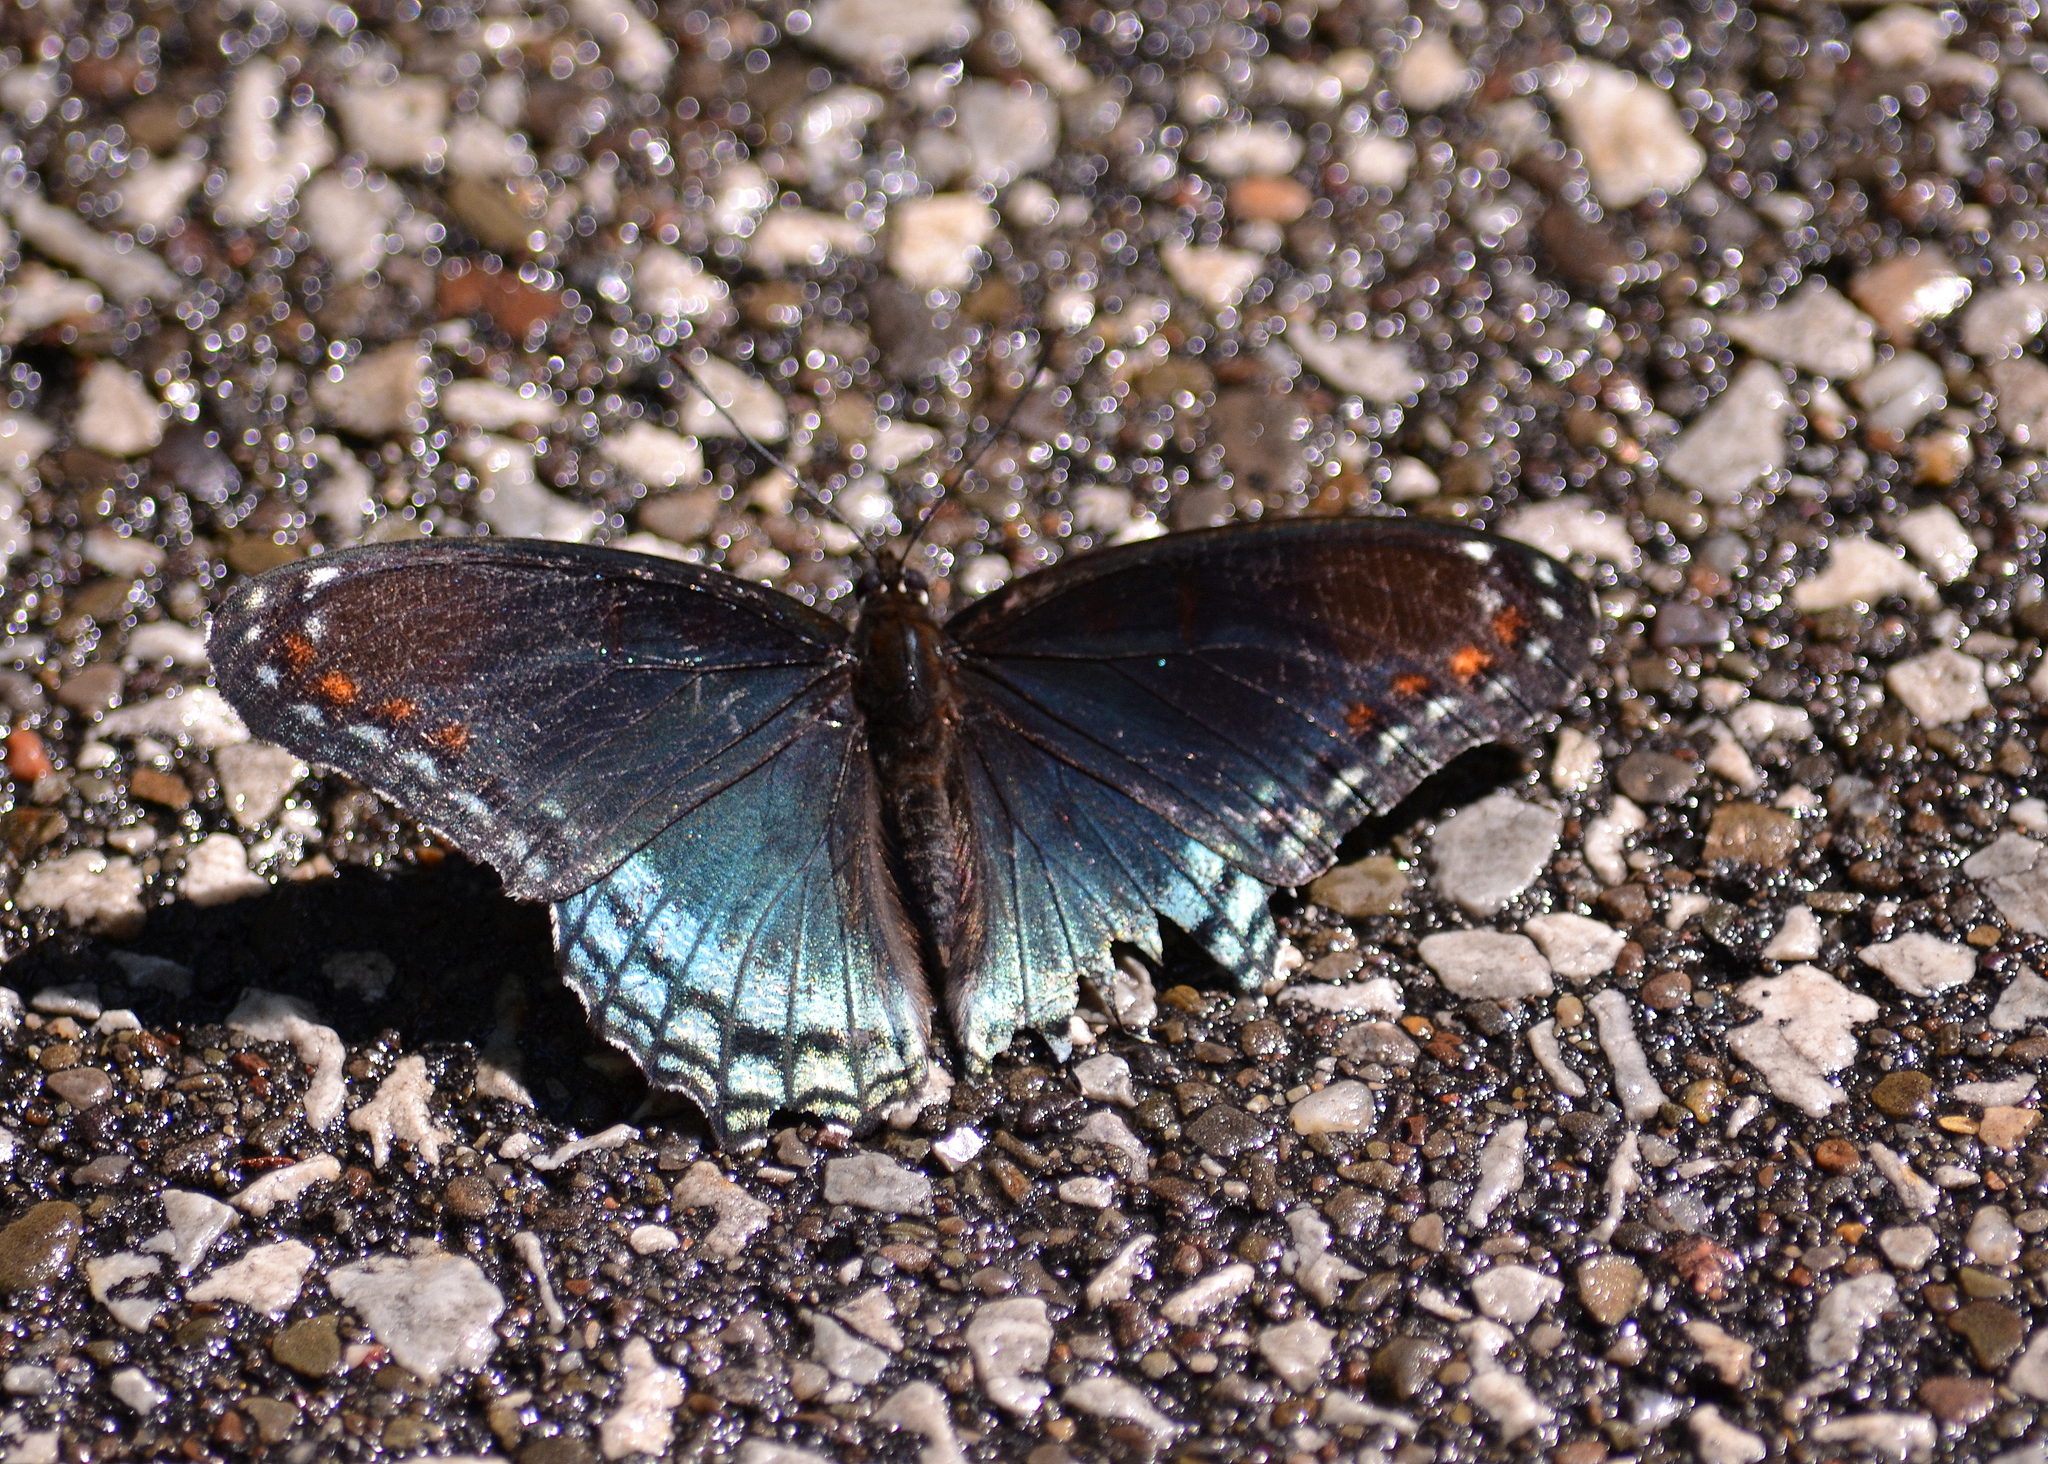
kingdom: Animalia
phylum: Arthropoda
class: Insecta
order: Lepidoptera
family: Nymphalidae
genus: Limenitis
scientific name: Limenitis astyanax
